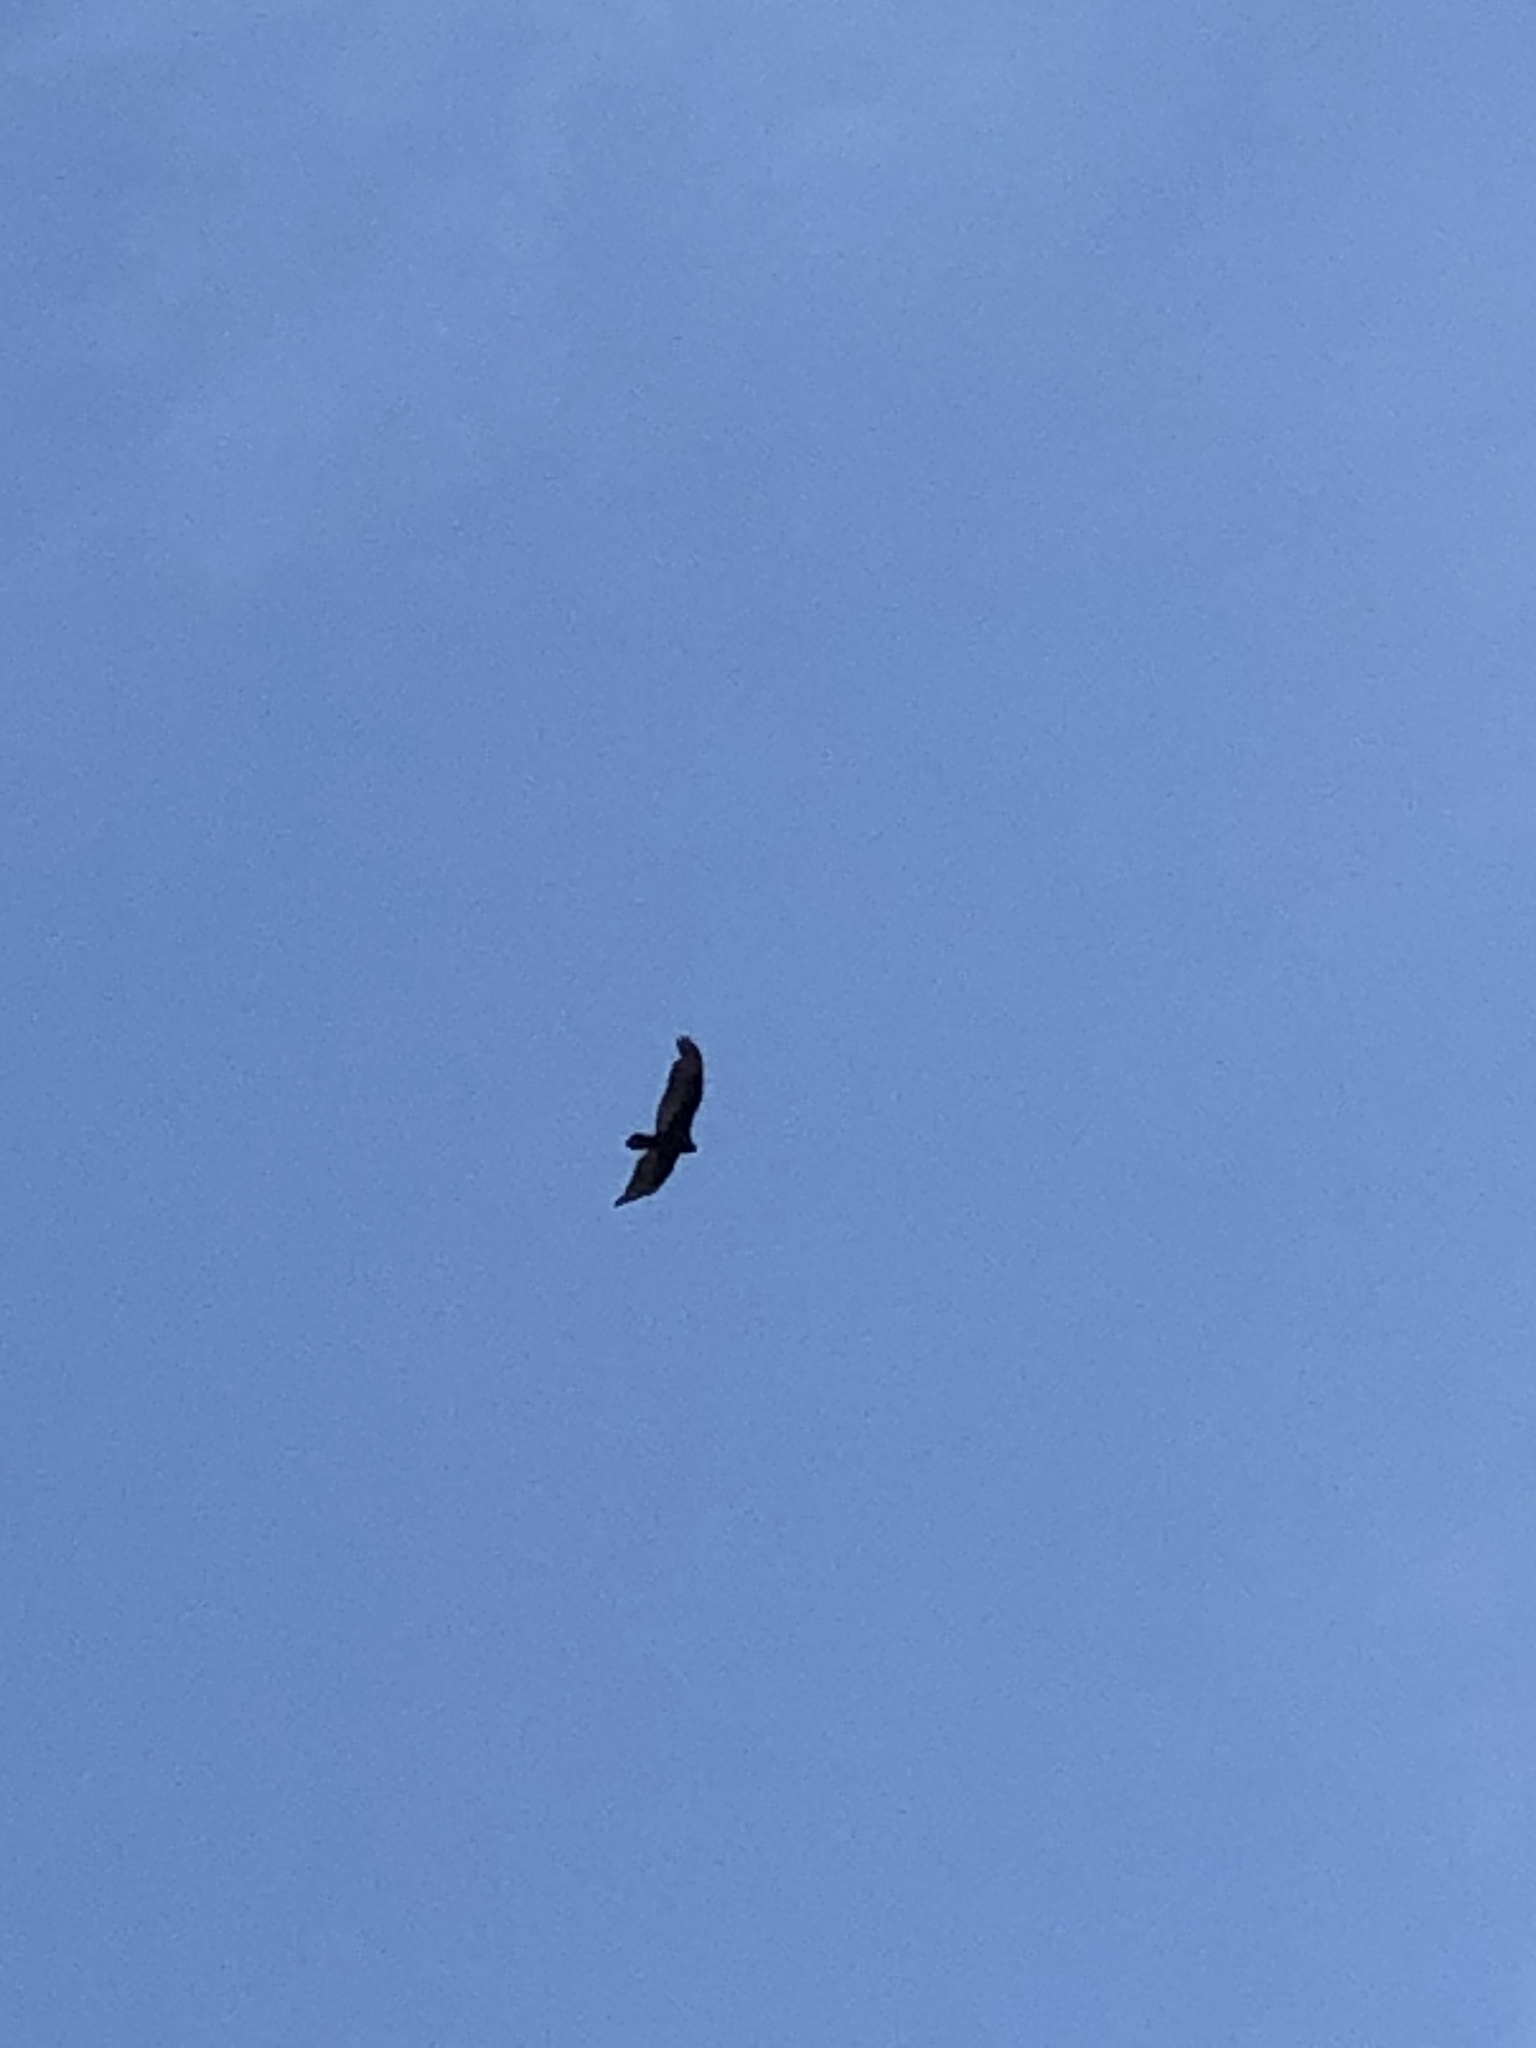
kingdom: Animalia
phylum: Chordata
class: Aves
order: Accipitriformes
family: Cathartidae
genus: Cathartes
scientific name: Cathartes aura
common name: Turkey vulture
